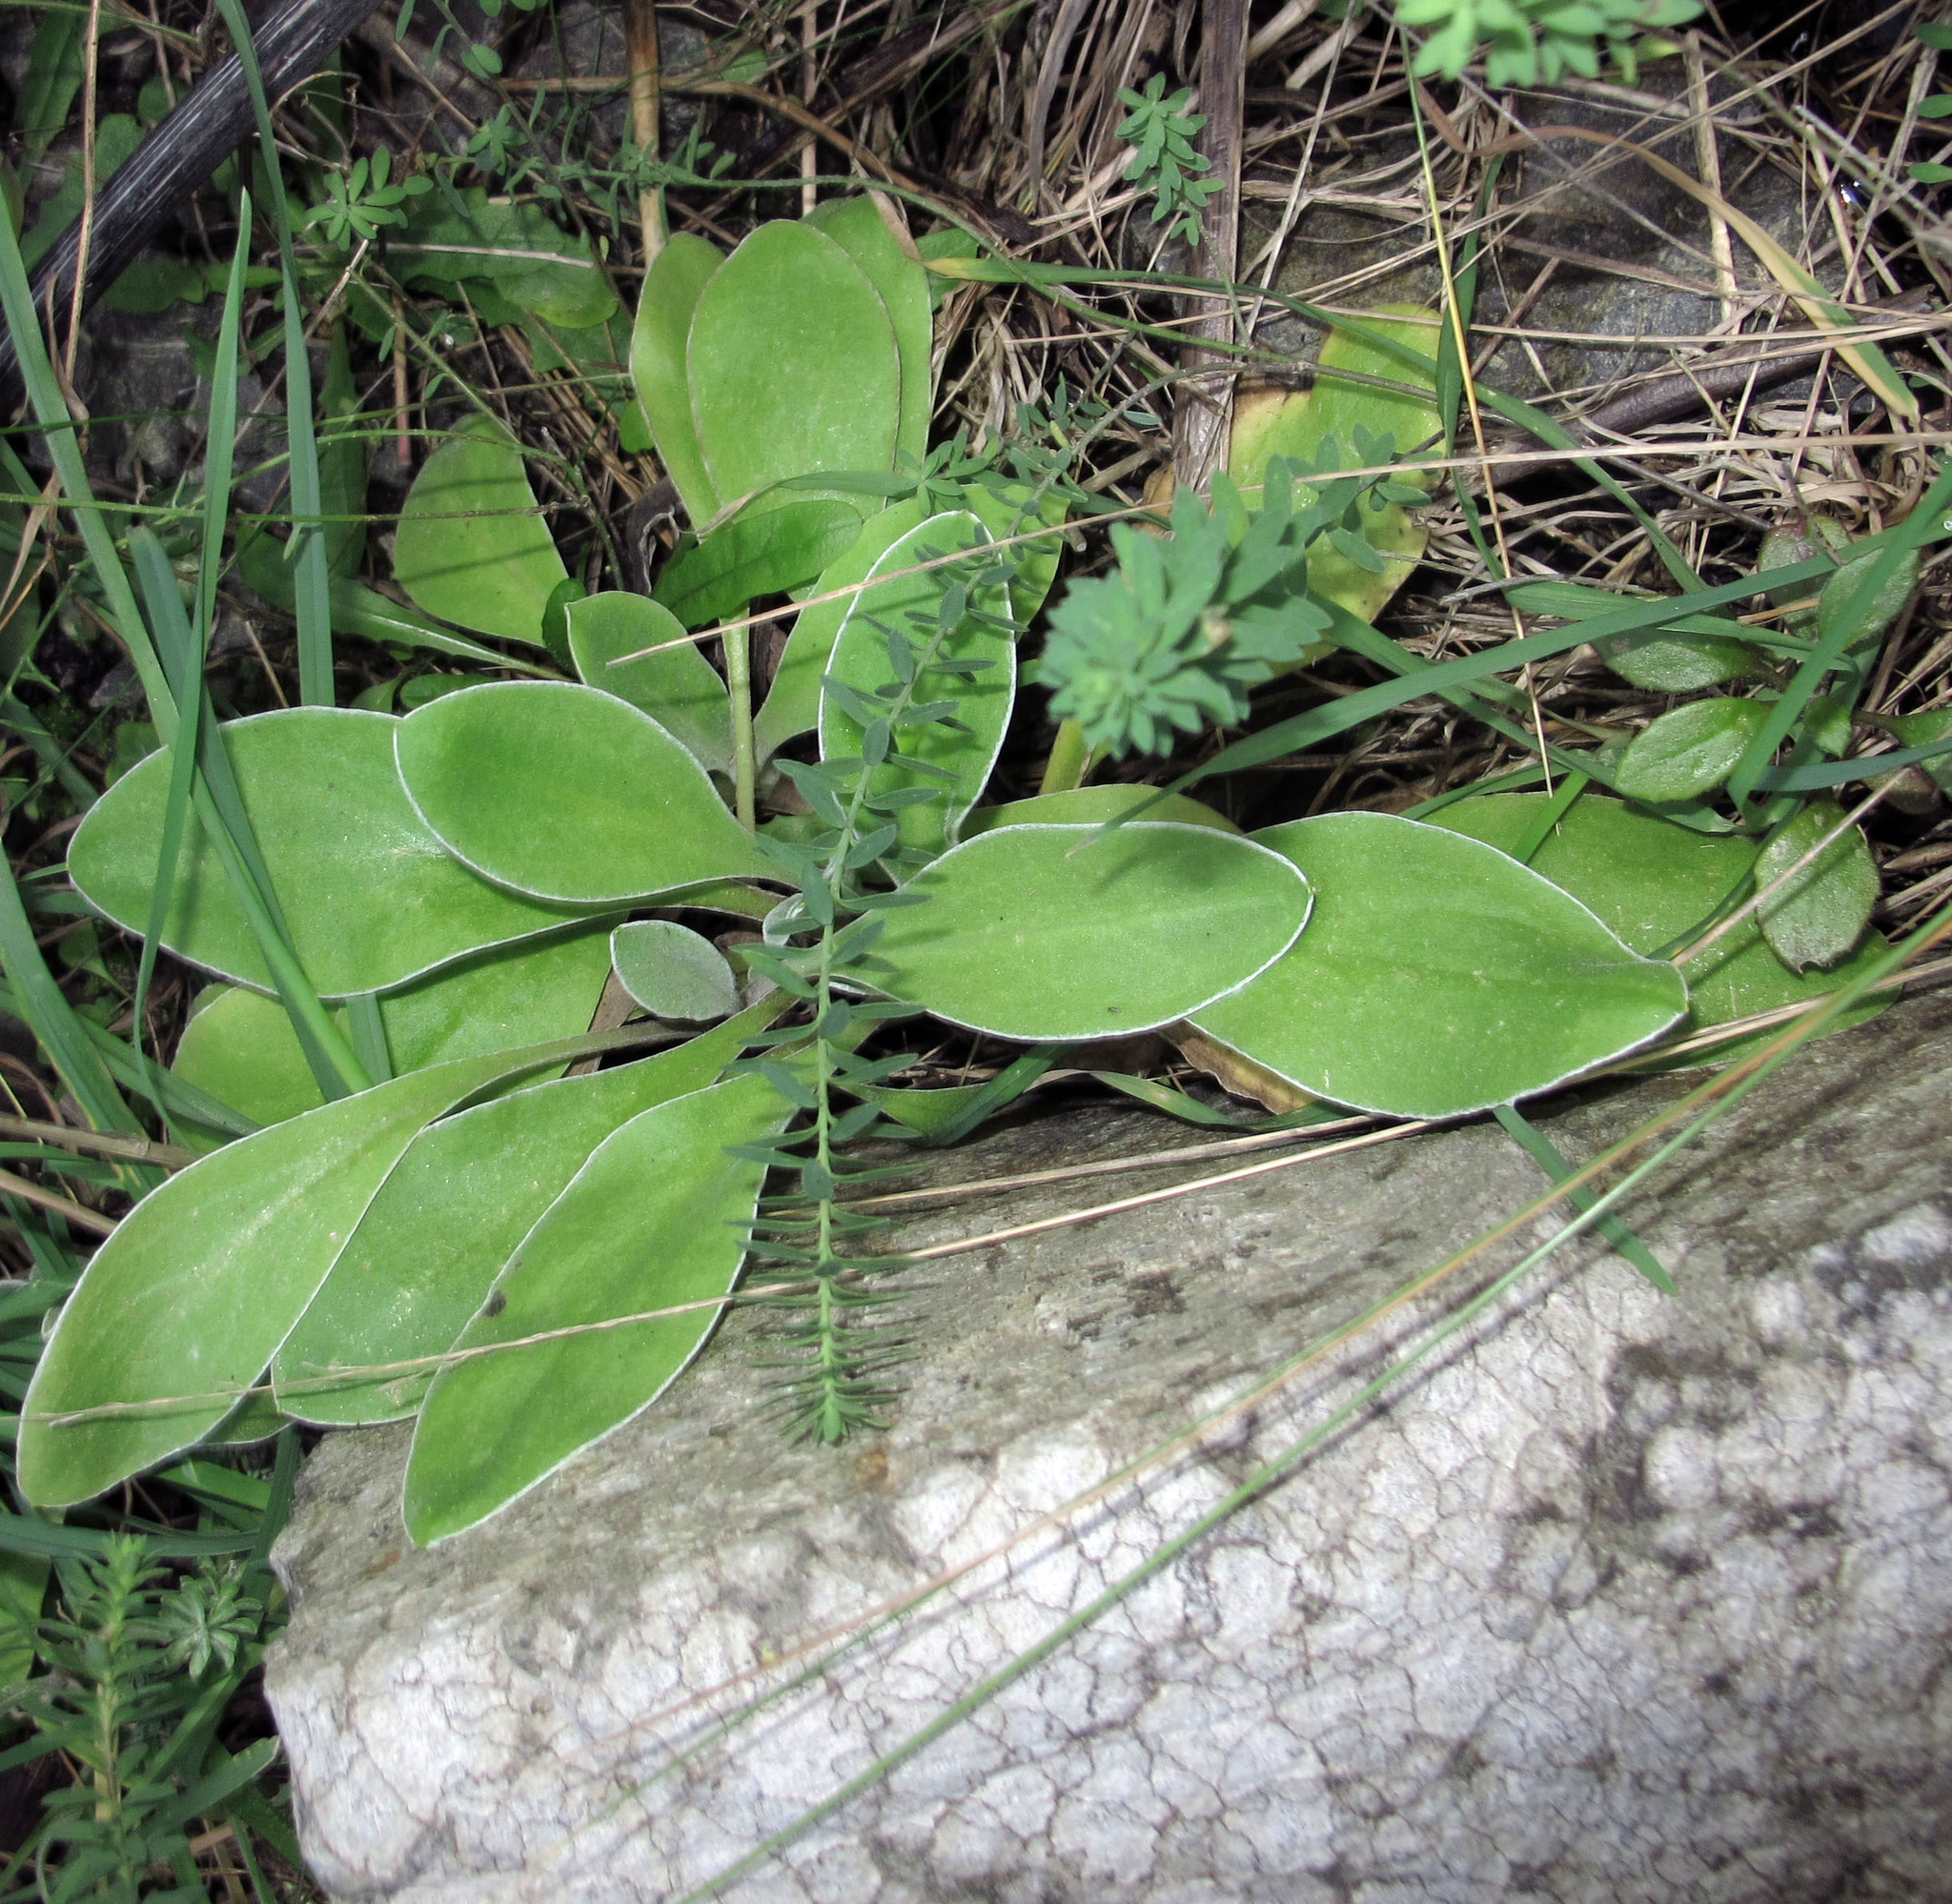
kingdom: Plantae
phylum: Tracheophyta
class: Magnoliopsida
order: Asterales
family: Asteraceae
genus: Craspedia
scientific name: Craspedia uniflora
